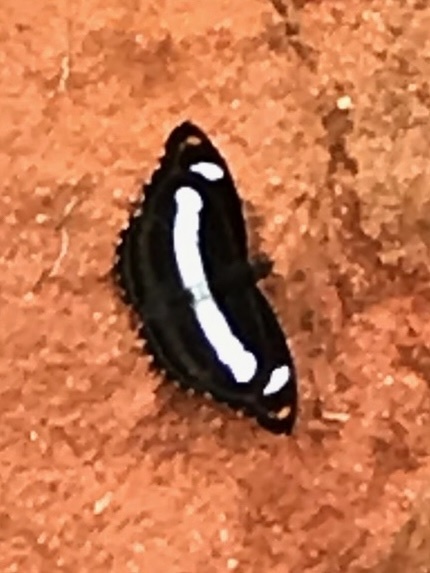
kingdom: Animalia
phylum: Arthropoda
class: Insecta
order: Lepidoptera
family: Nymphalidae
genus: Parathyma
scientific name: Parathyma selenophora
